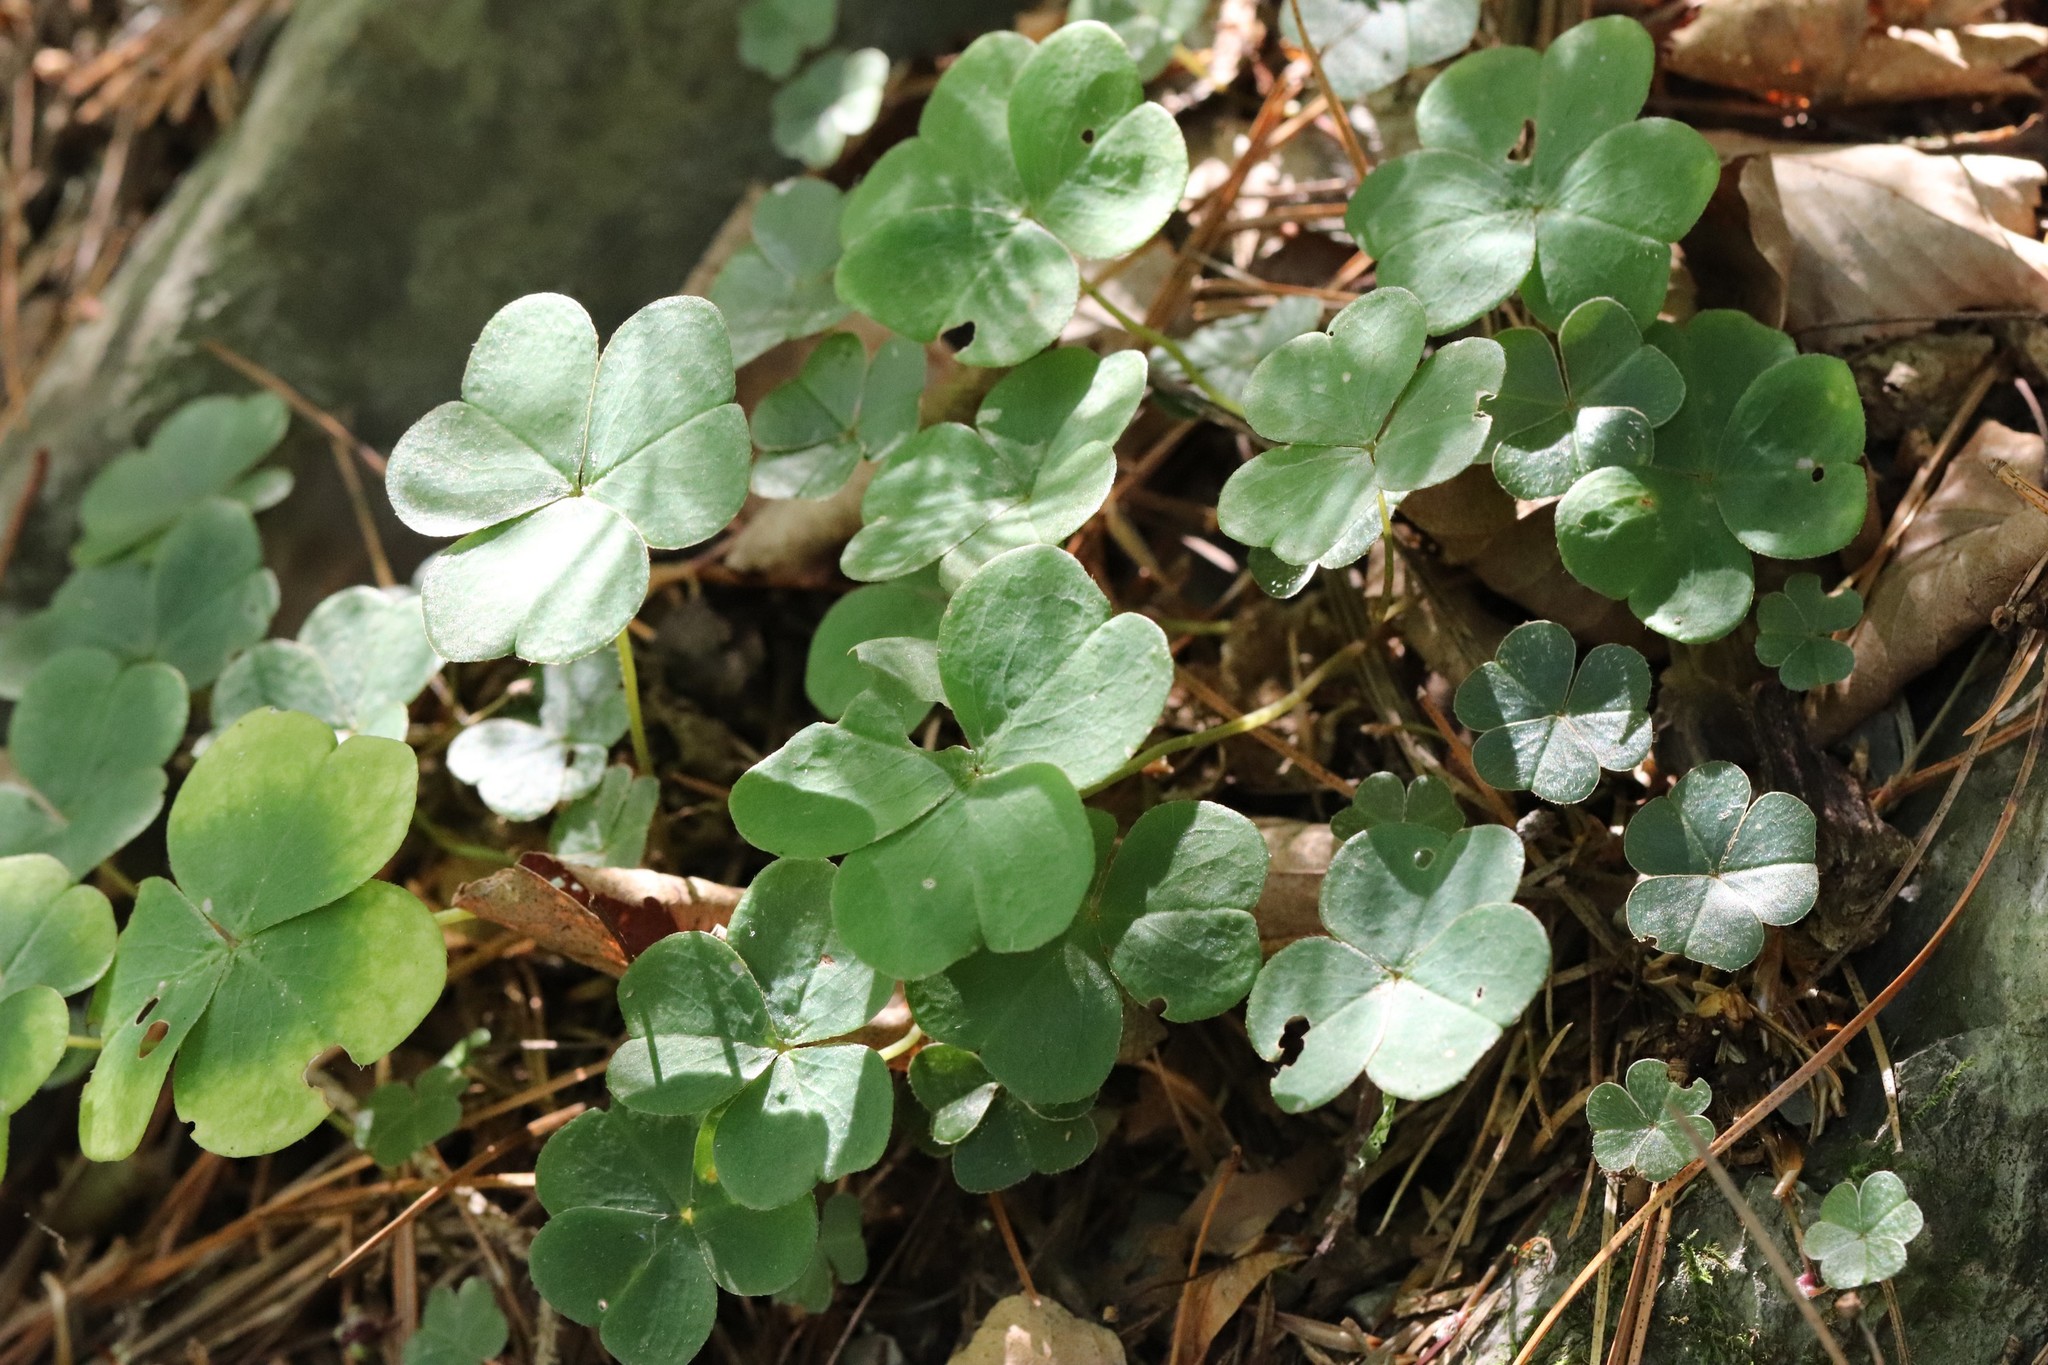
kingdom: Plantae
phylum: Tracheophyta
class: Magnoliopsida
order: Oxalidales
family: Oxalidaceae
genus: Oxalis
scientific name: Oxalis acetosella
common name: Wood-sorrel
